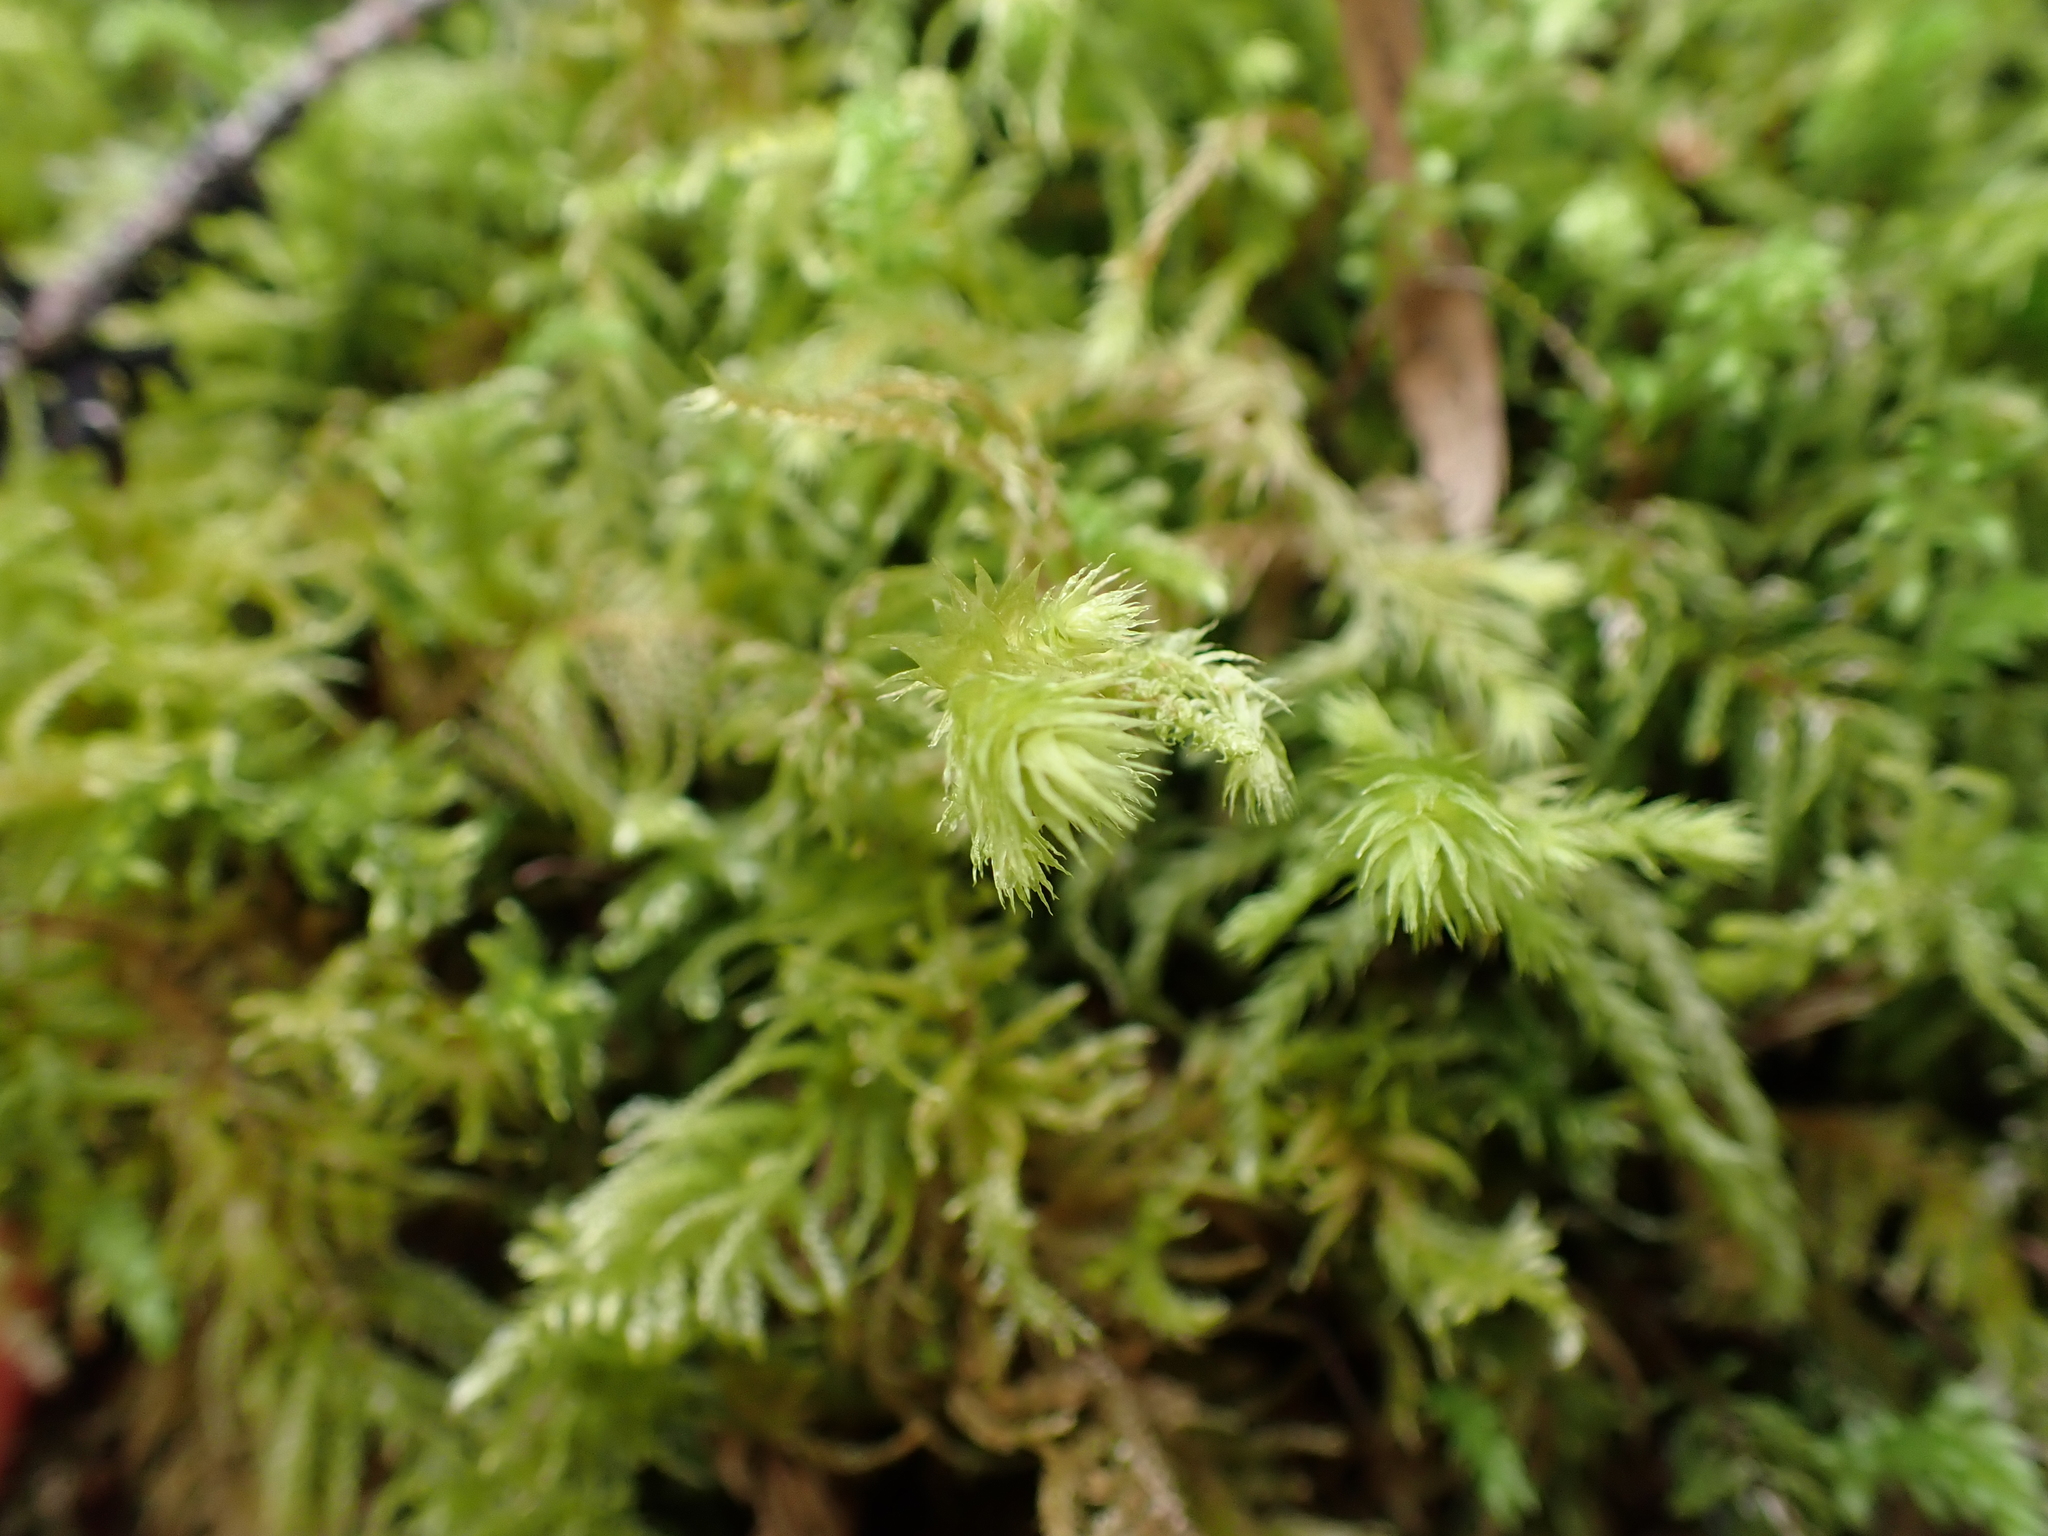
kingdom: Plantae
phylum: Bryophyta
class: Bryopsida
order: Hypnales
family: Hylocomiaceae
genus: Hylocomiadelphus
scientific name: Hylocomiadelphus triquetrus
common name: Rough goose neck moss
